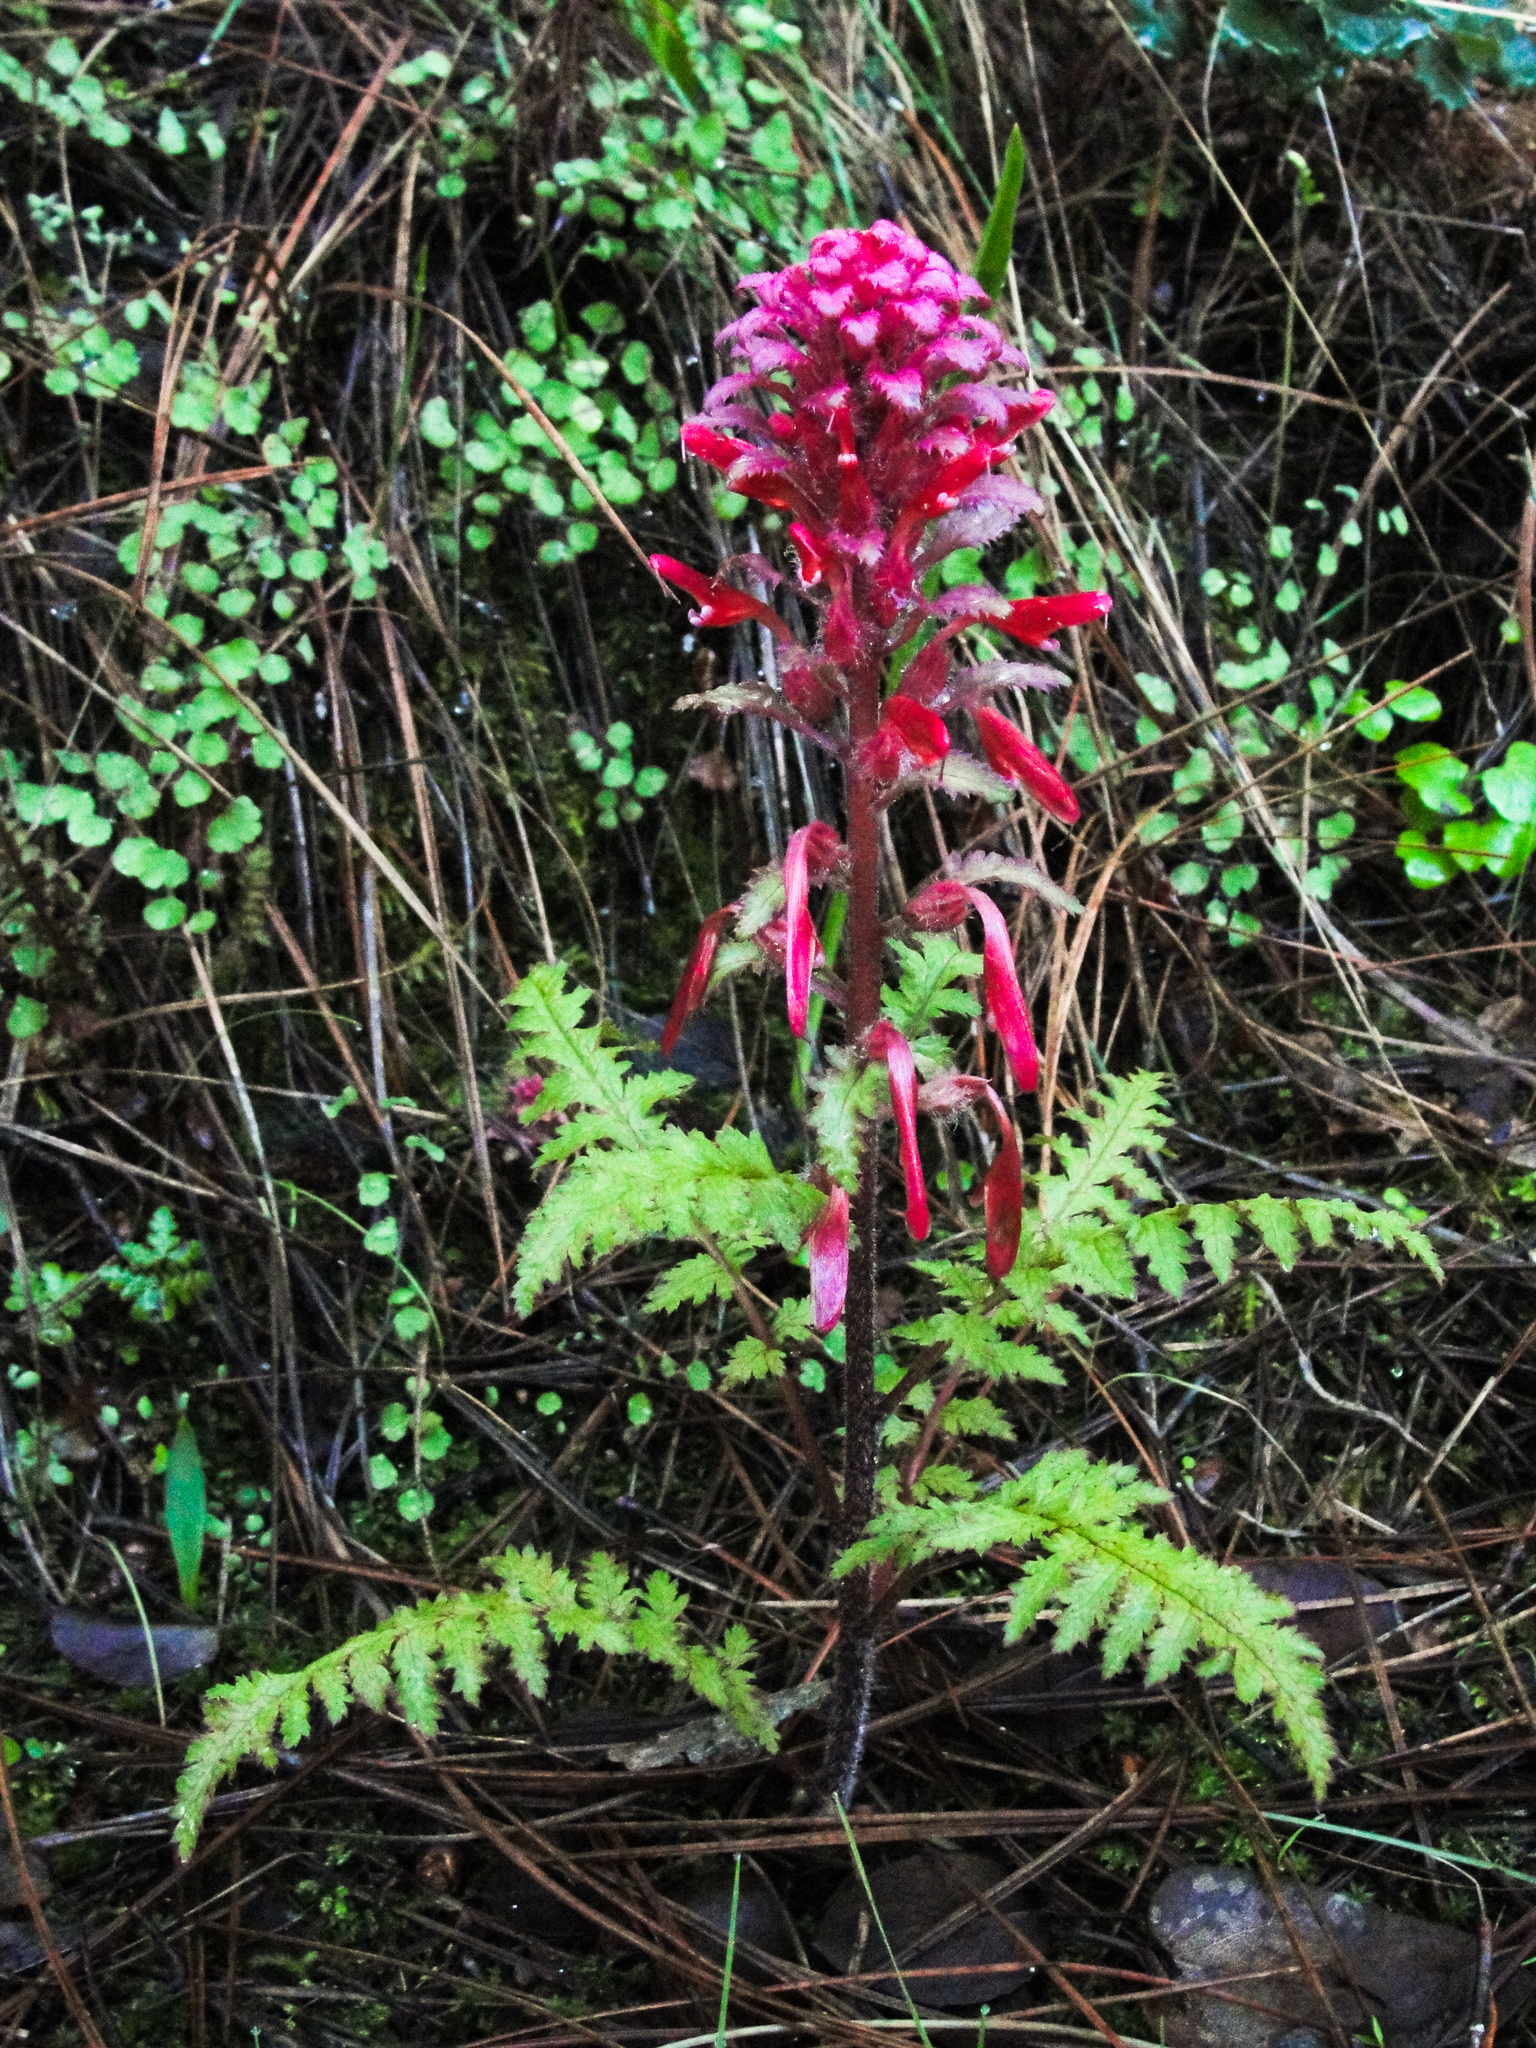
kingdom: Plantae
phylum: Tracheophyta
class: Magnoliopsida
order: Lamiales
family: Orobanchaceae
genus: Pedicularis
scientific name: Pedicularis densiflora
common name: Indian warrior
